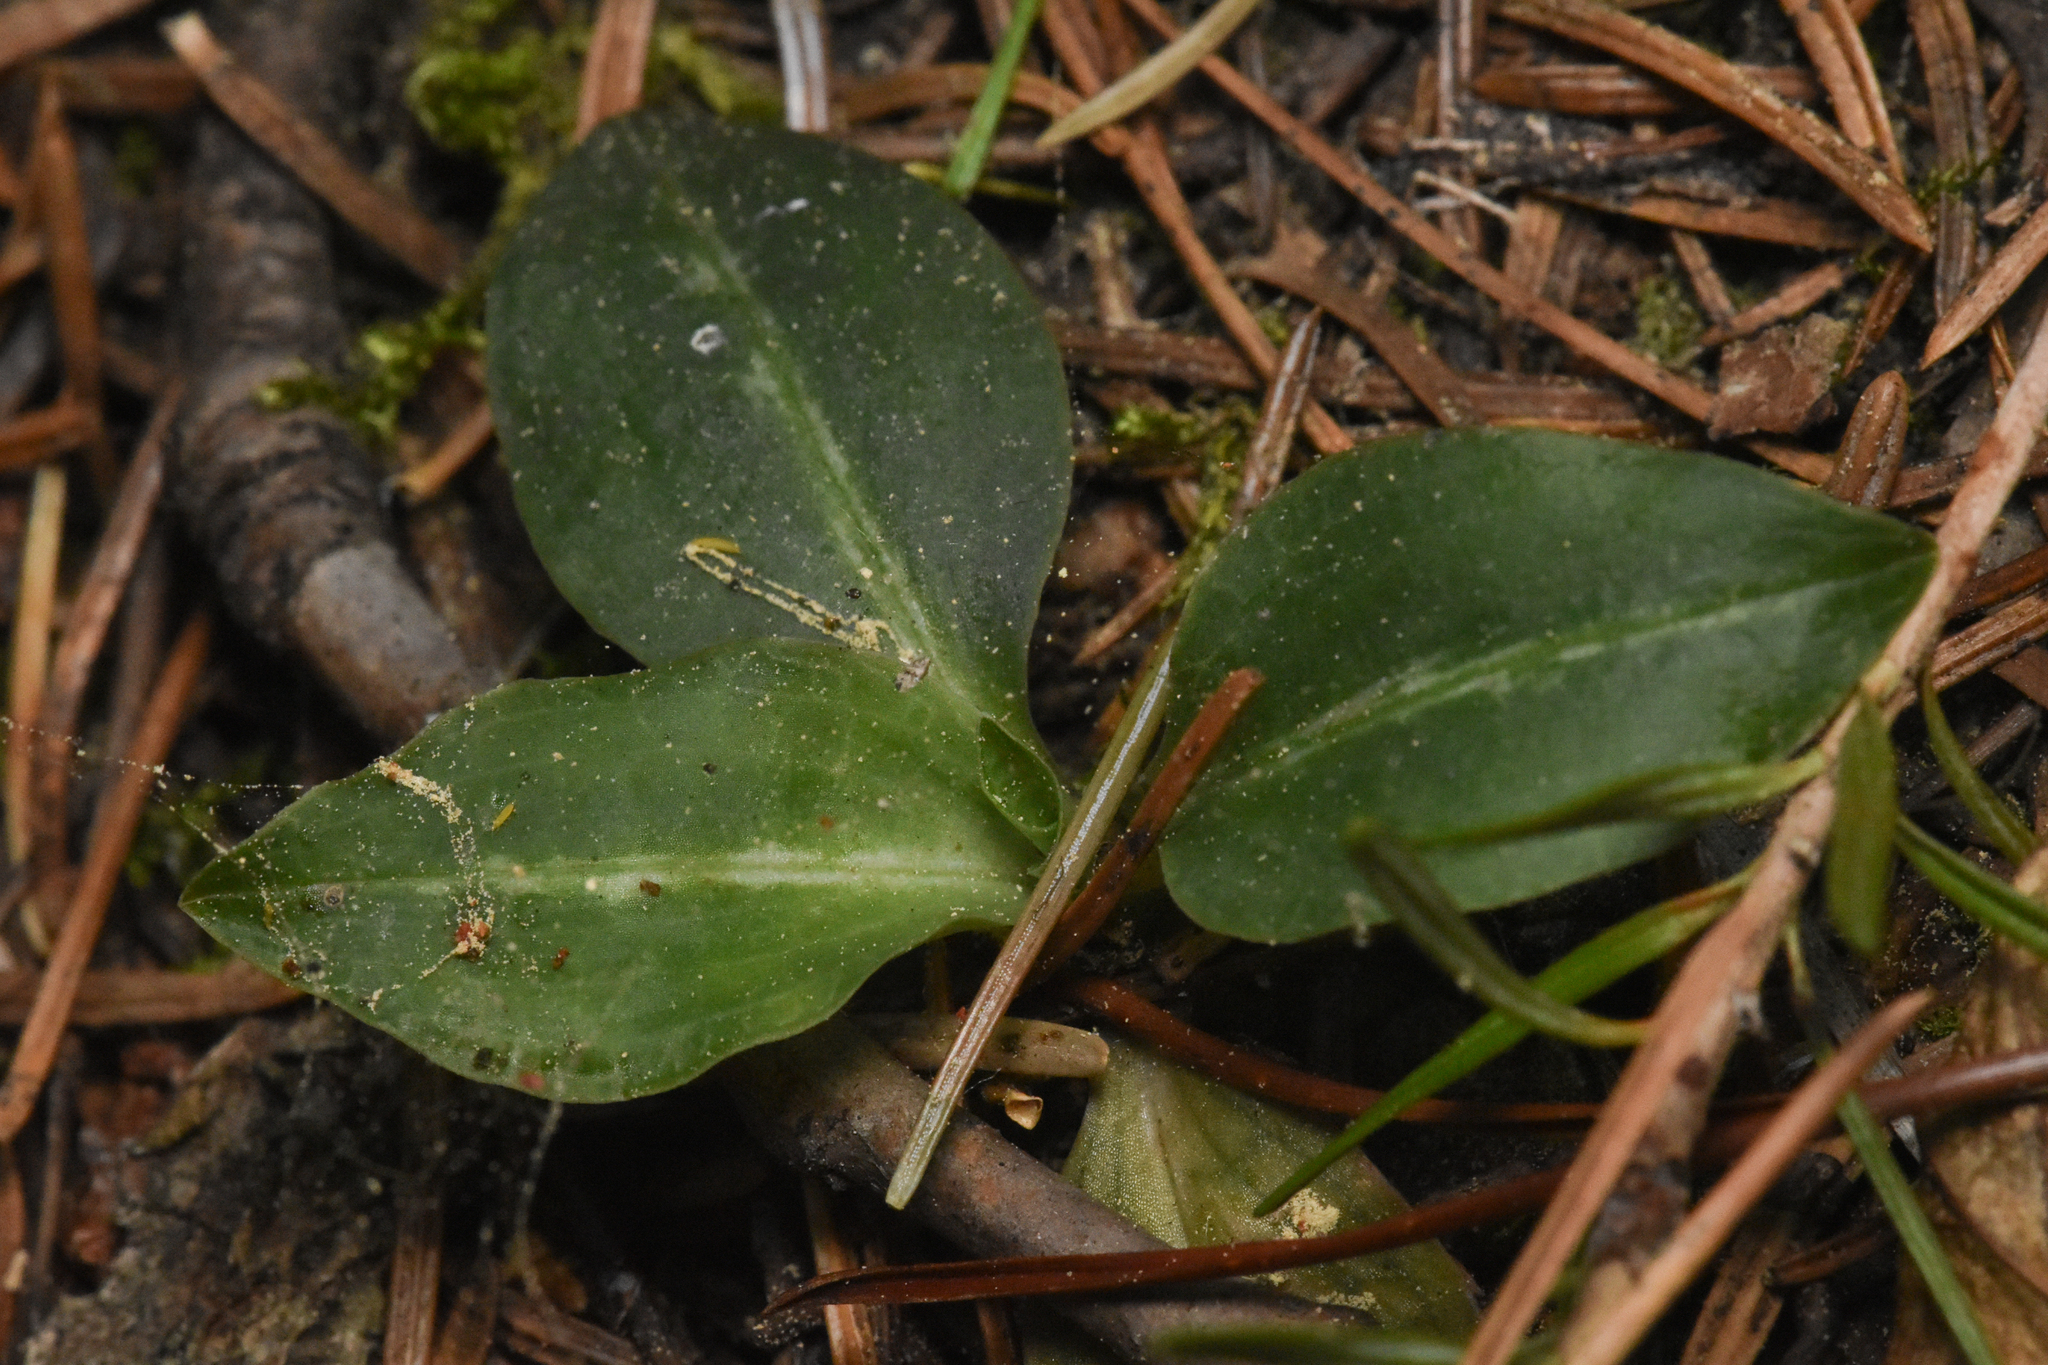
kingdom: Plantae
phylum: Tracheophyta
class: Liliopsida
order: Asparagales
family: Orchidaceae
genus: Goodyera
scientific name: Goodyera oblongifolia
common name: Giant rattlesnake-plantain
